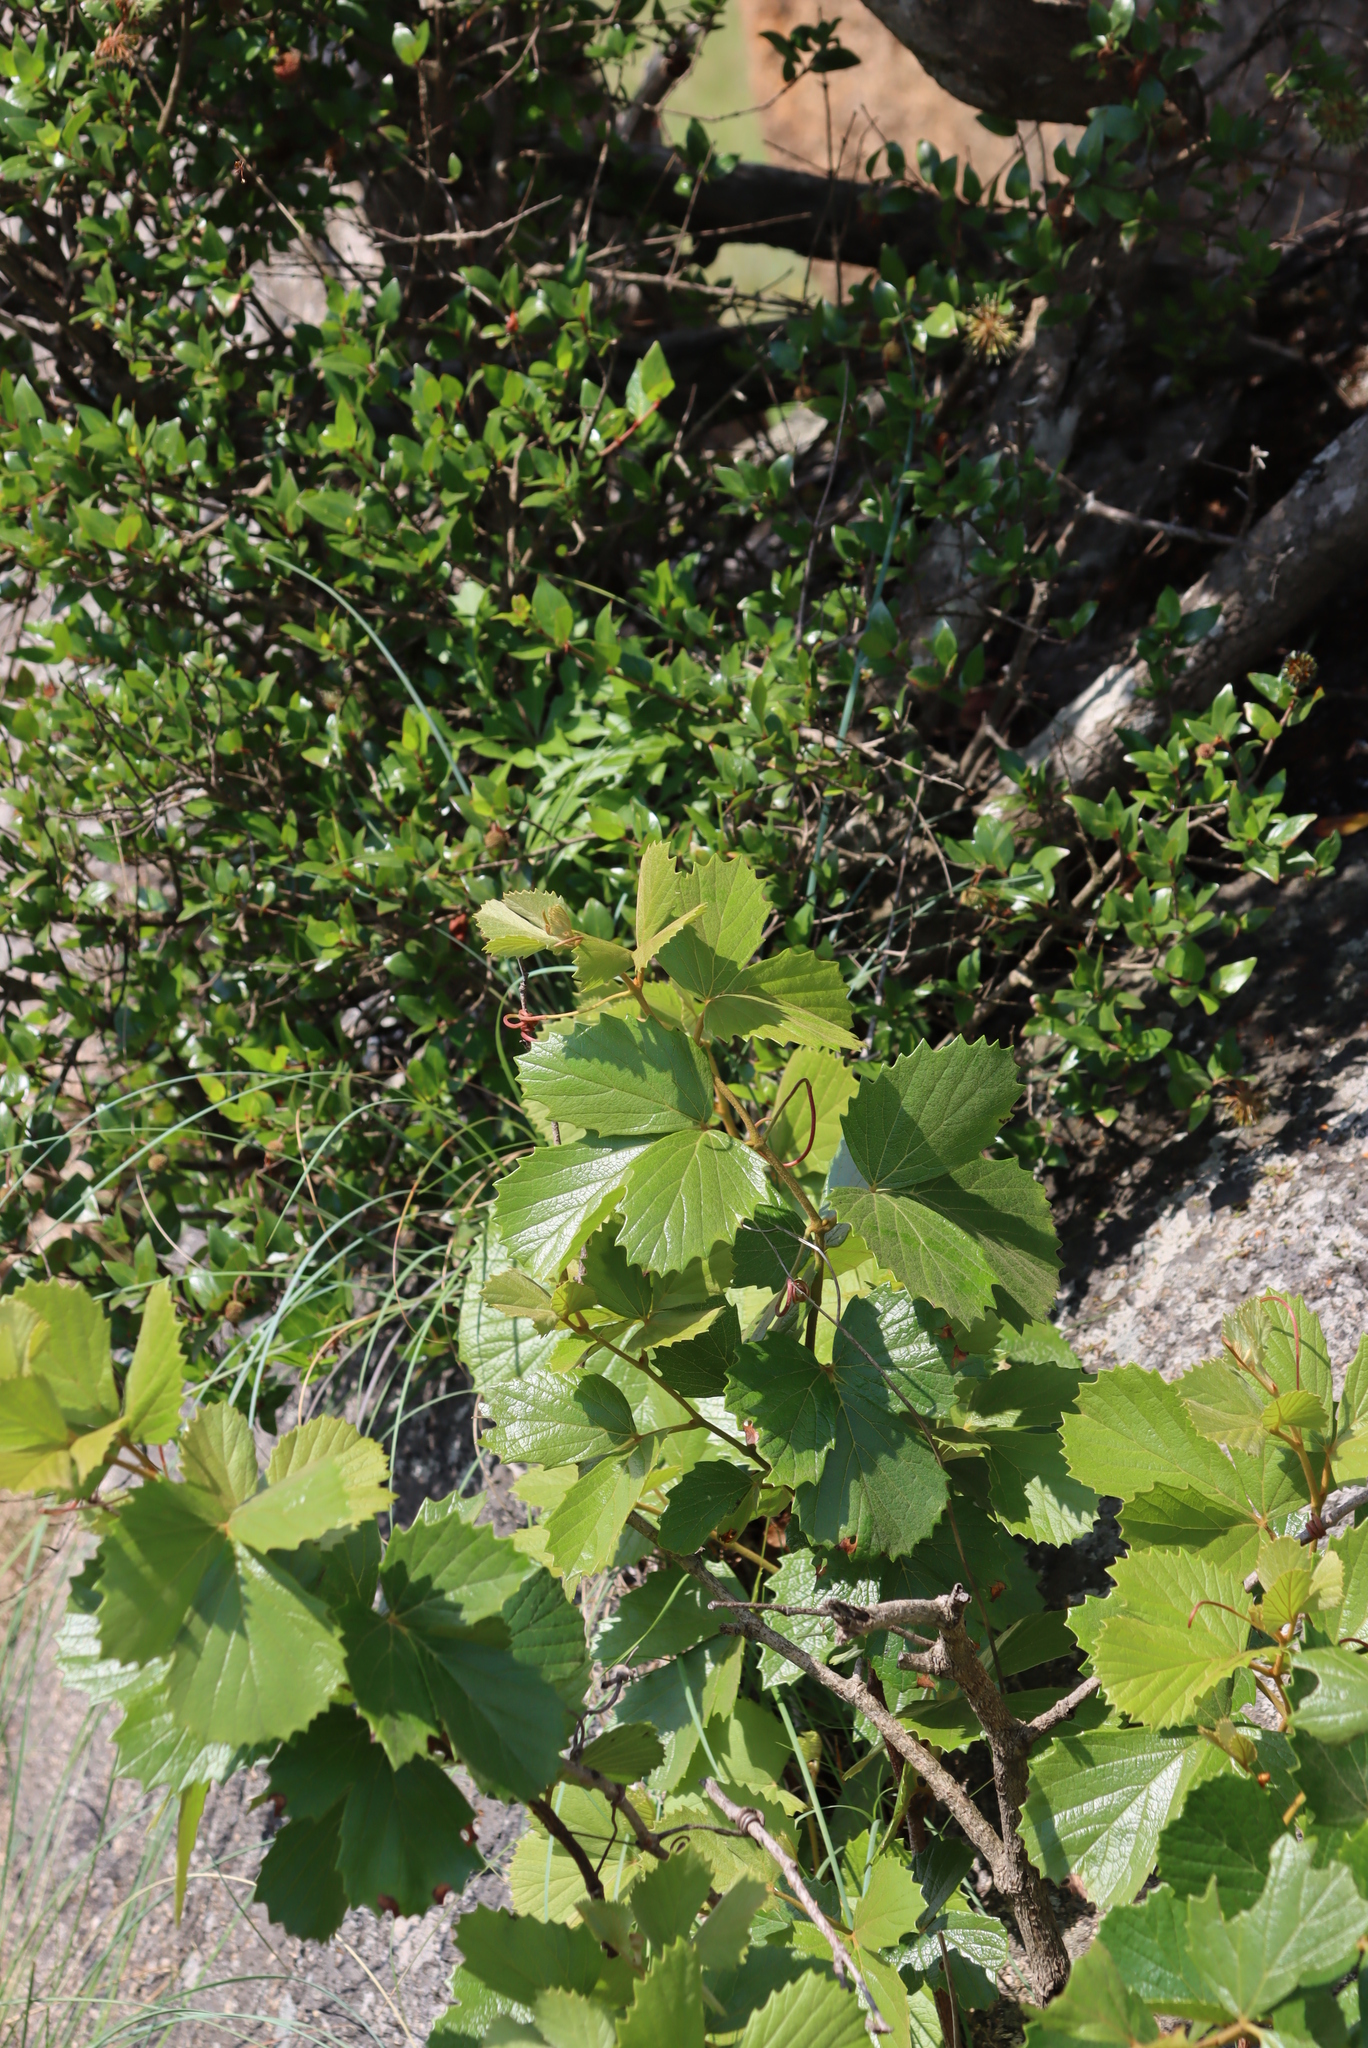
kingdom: Plantae
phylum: Tracheophyta
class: Magnoliopsida
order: Vitales
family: Vitaceae
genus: Rhoicissus
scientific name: Rhoicissus tridentata
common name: Common forest grape
